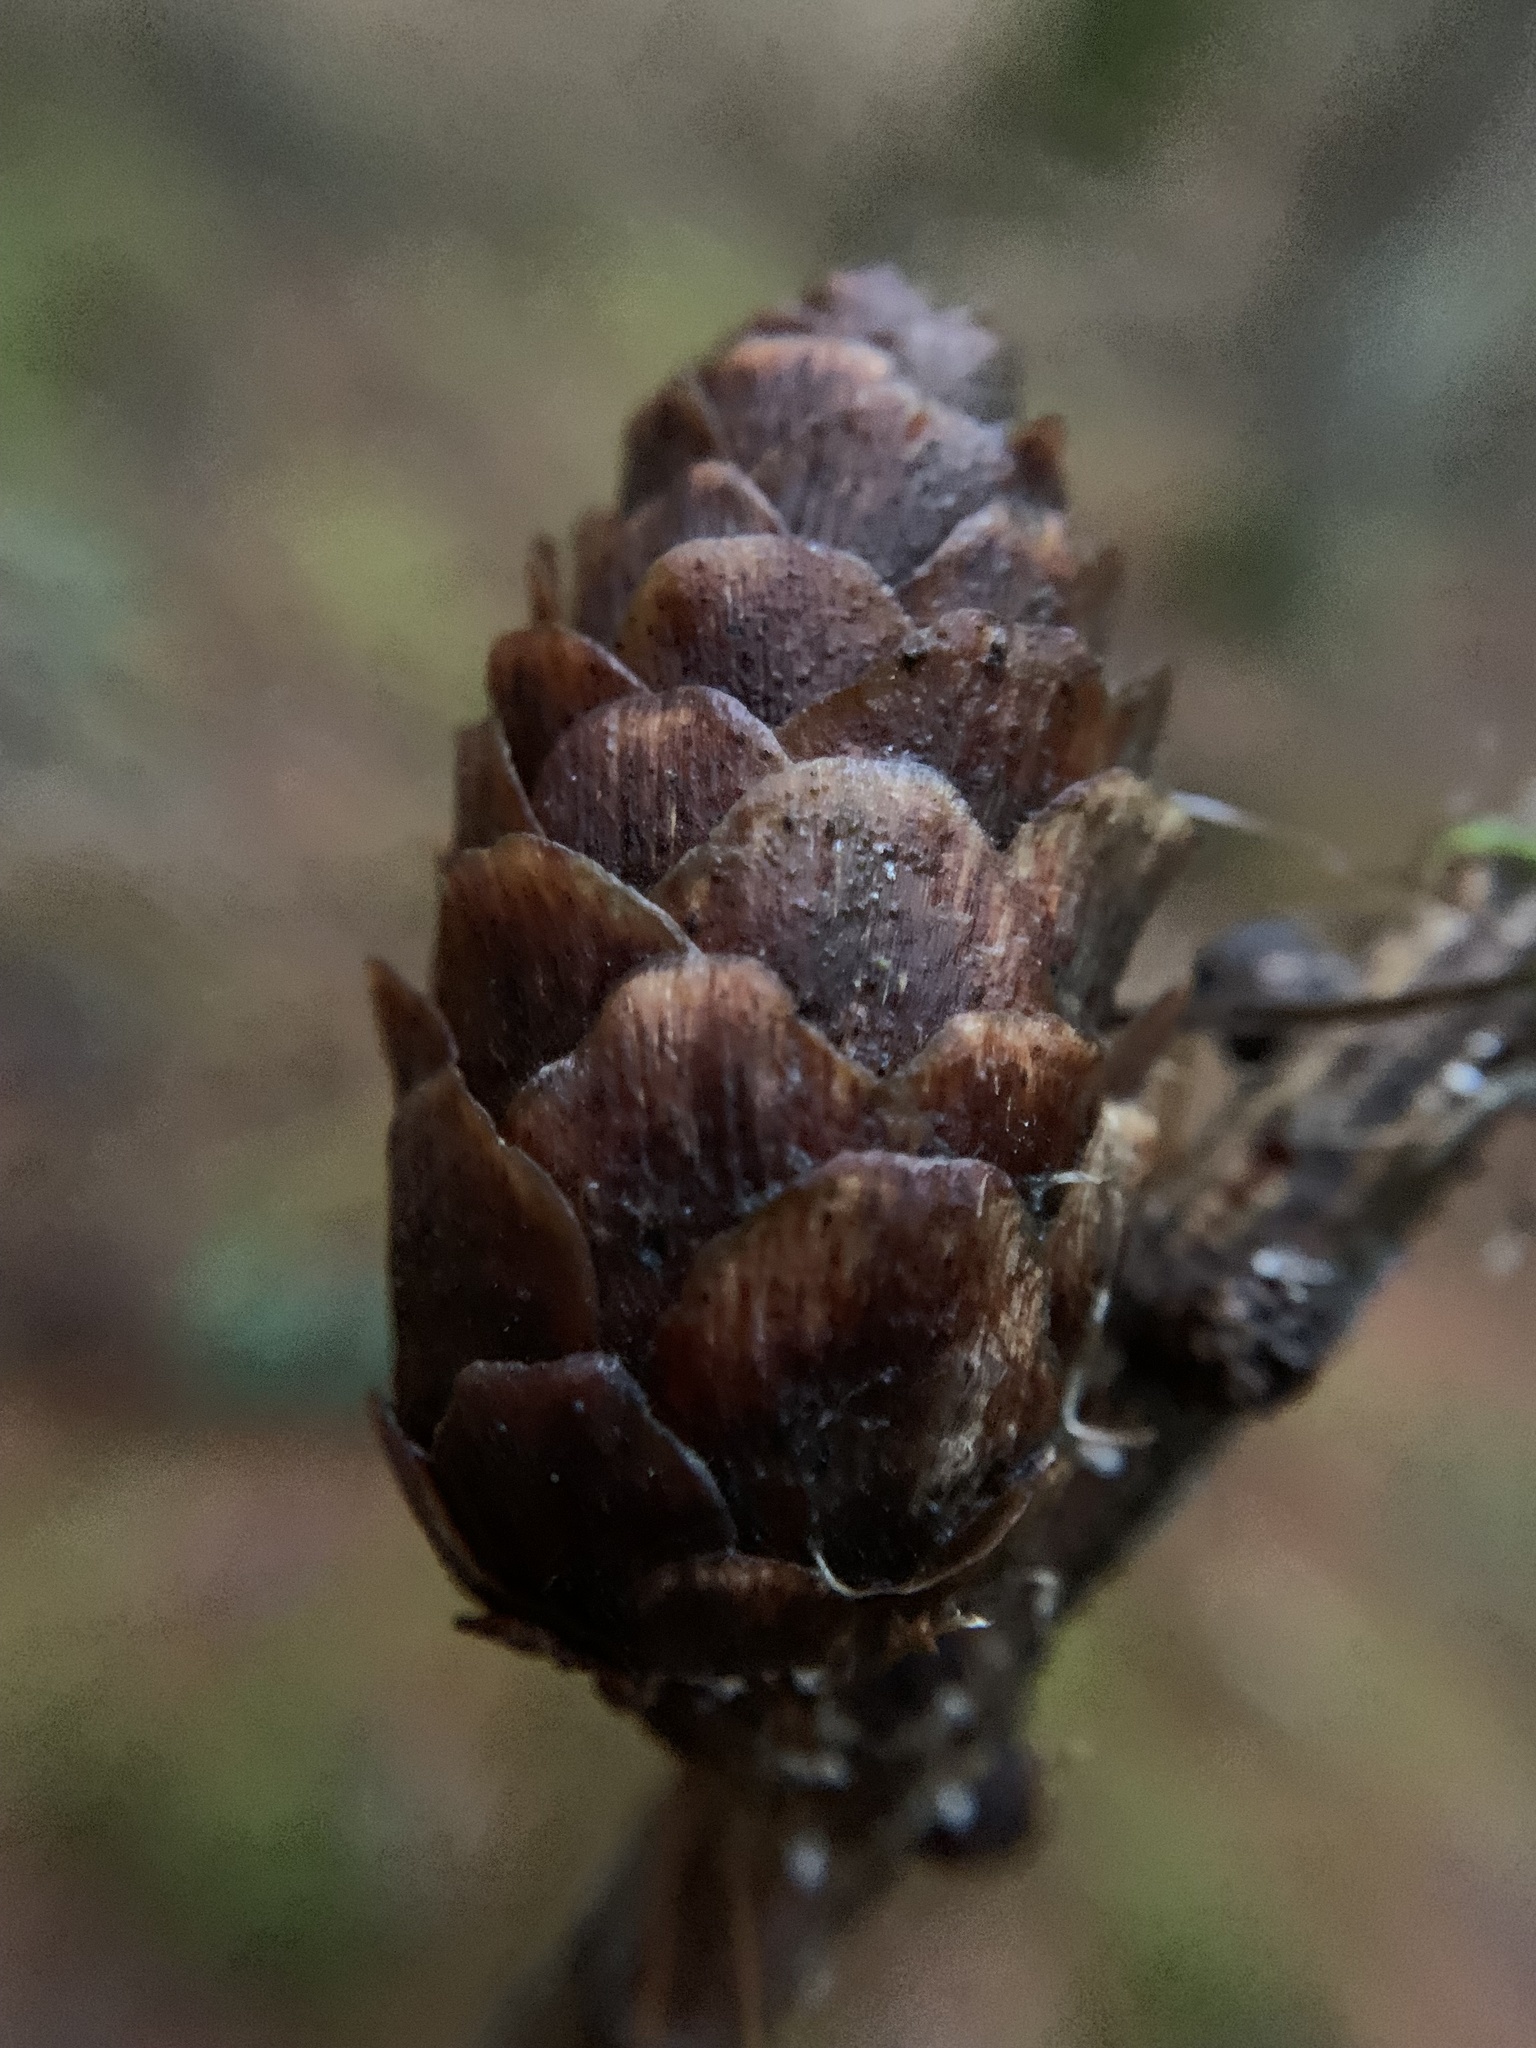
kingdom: Plantae
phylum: Tracheophyta
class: Pinopsida
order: Pinales
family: Pinaceae
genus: Larix
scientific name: Larix decidua
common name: European larch
